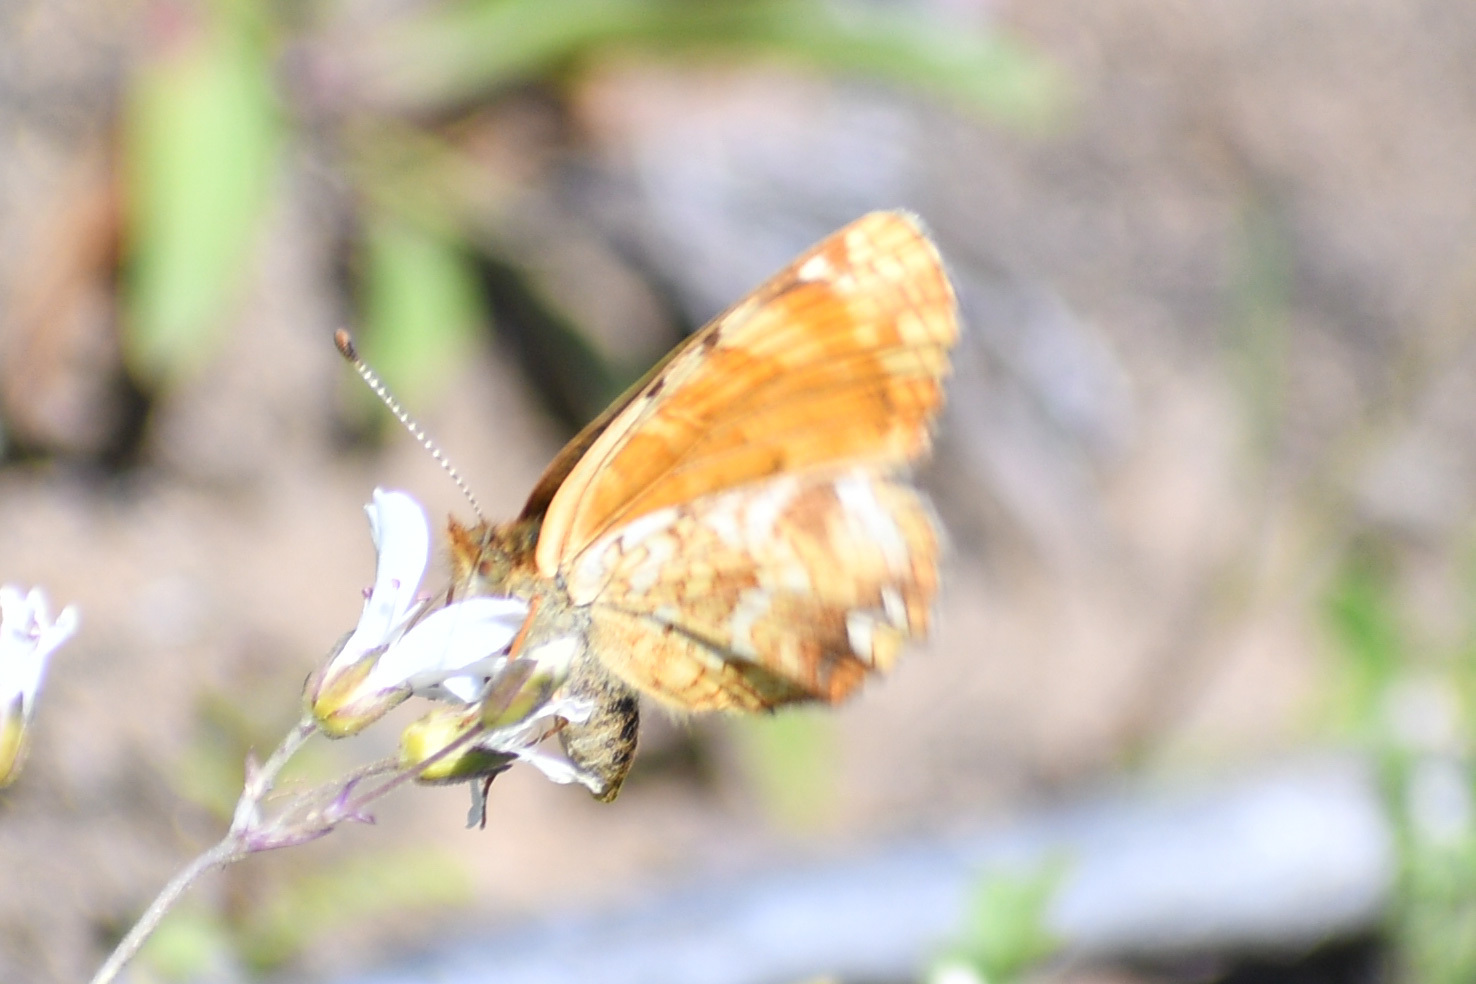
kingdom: Animalia
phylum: Arthropoda
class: Insecta
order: Lepidoptera
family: Nymphalidae
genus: Phyciodes
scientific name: Phyciodes tharos
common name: Pearl crescent
